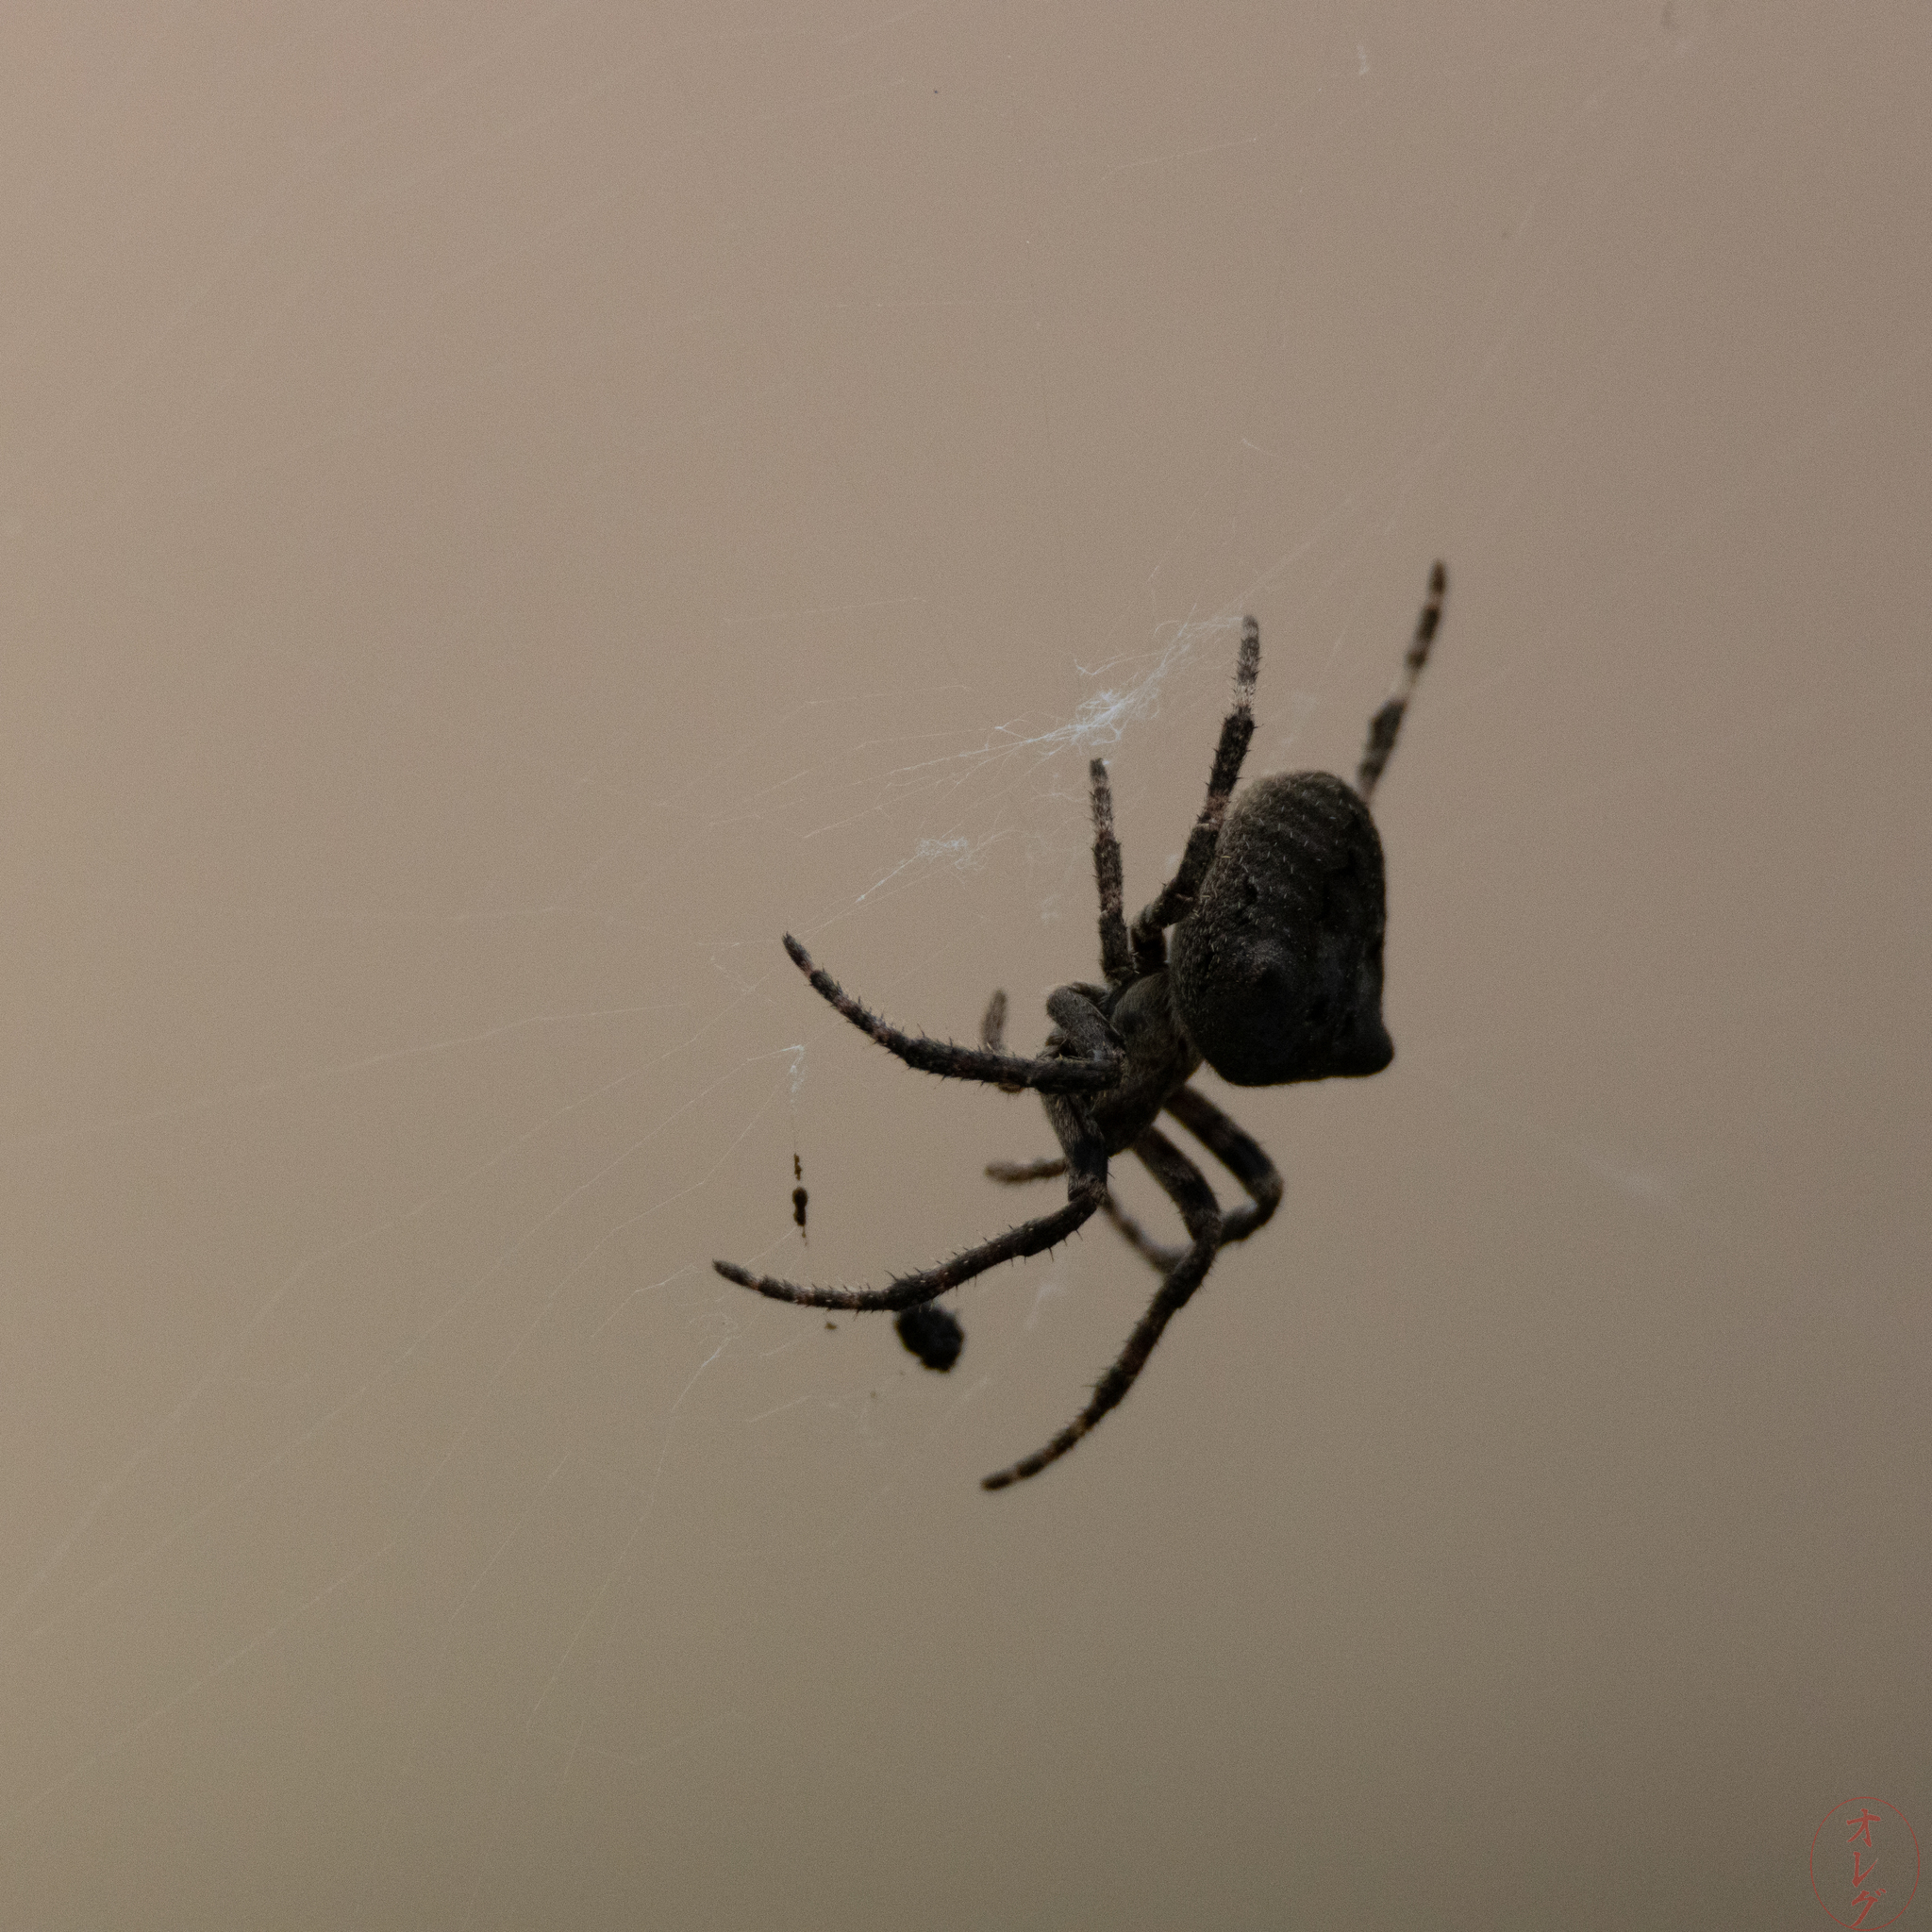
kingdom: Animalia
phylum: Arthropoda
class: Arachnida
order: Araneae
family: Araneidae
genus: Araneus
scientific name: Araneus ventricosus
